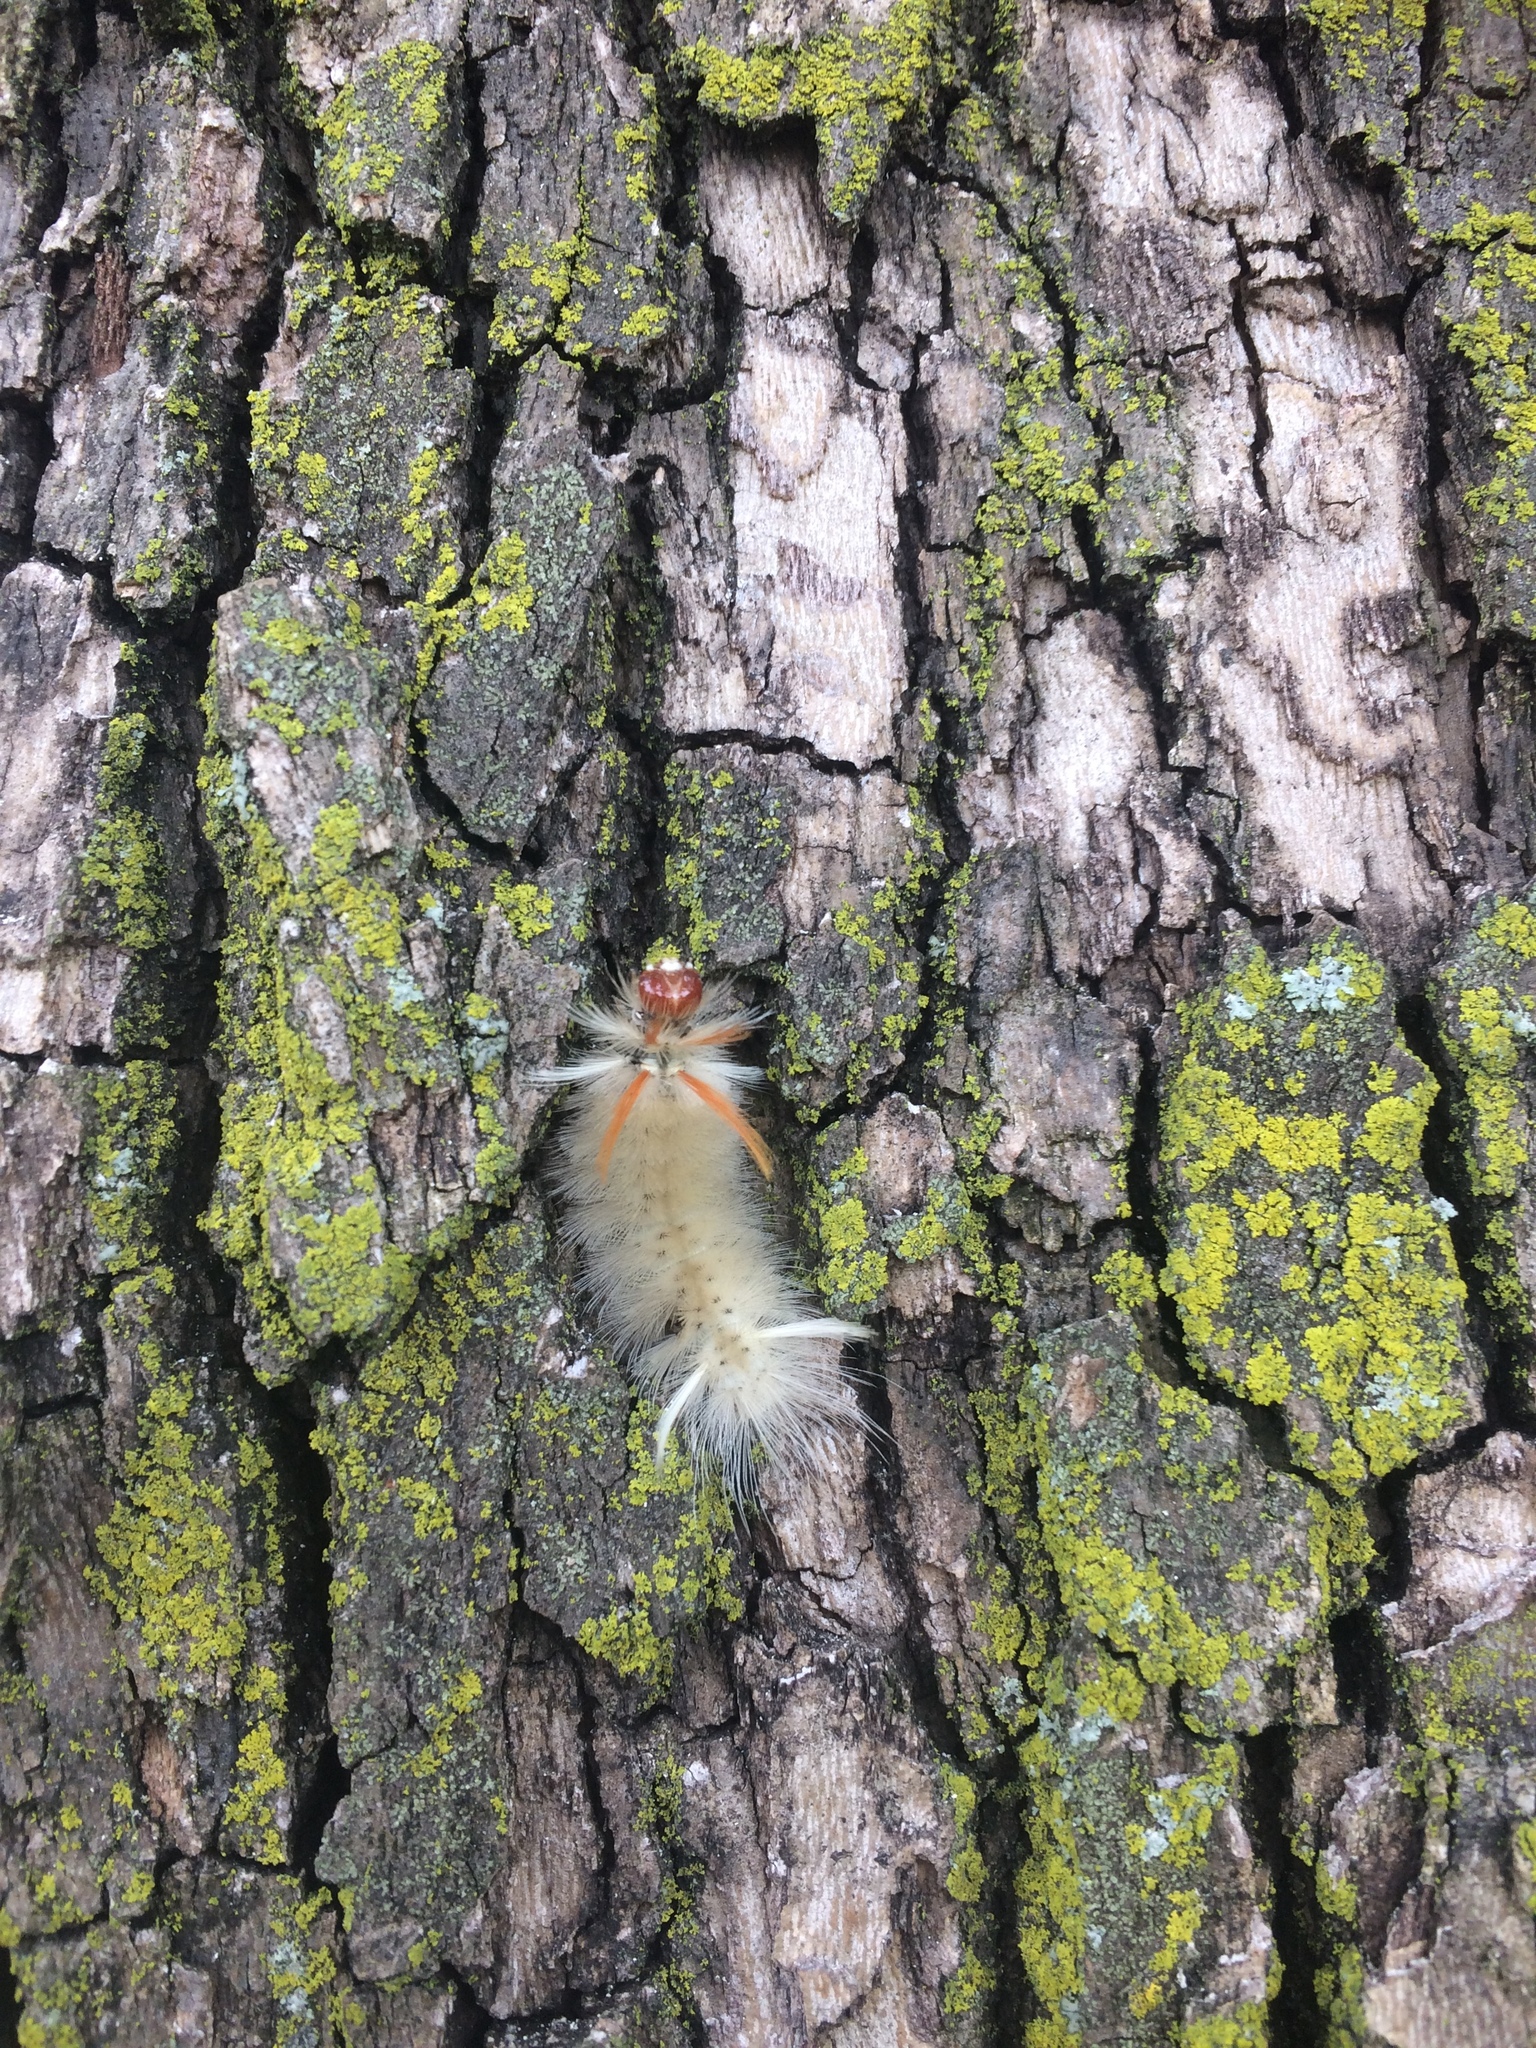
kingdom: Animalia
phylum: Arthropoda
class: Insecta
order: Lepidoptera
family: Erebidae
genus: Halysidota
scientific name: Halysidota harrisii
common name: Sycamore tussock moth
